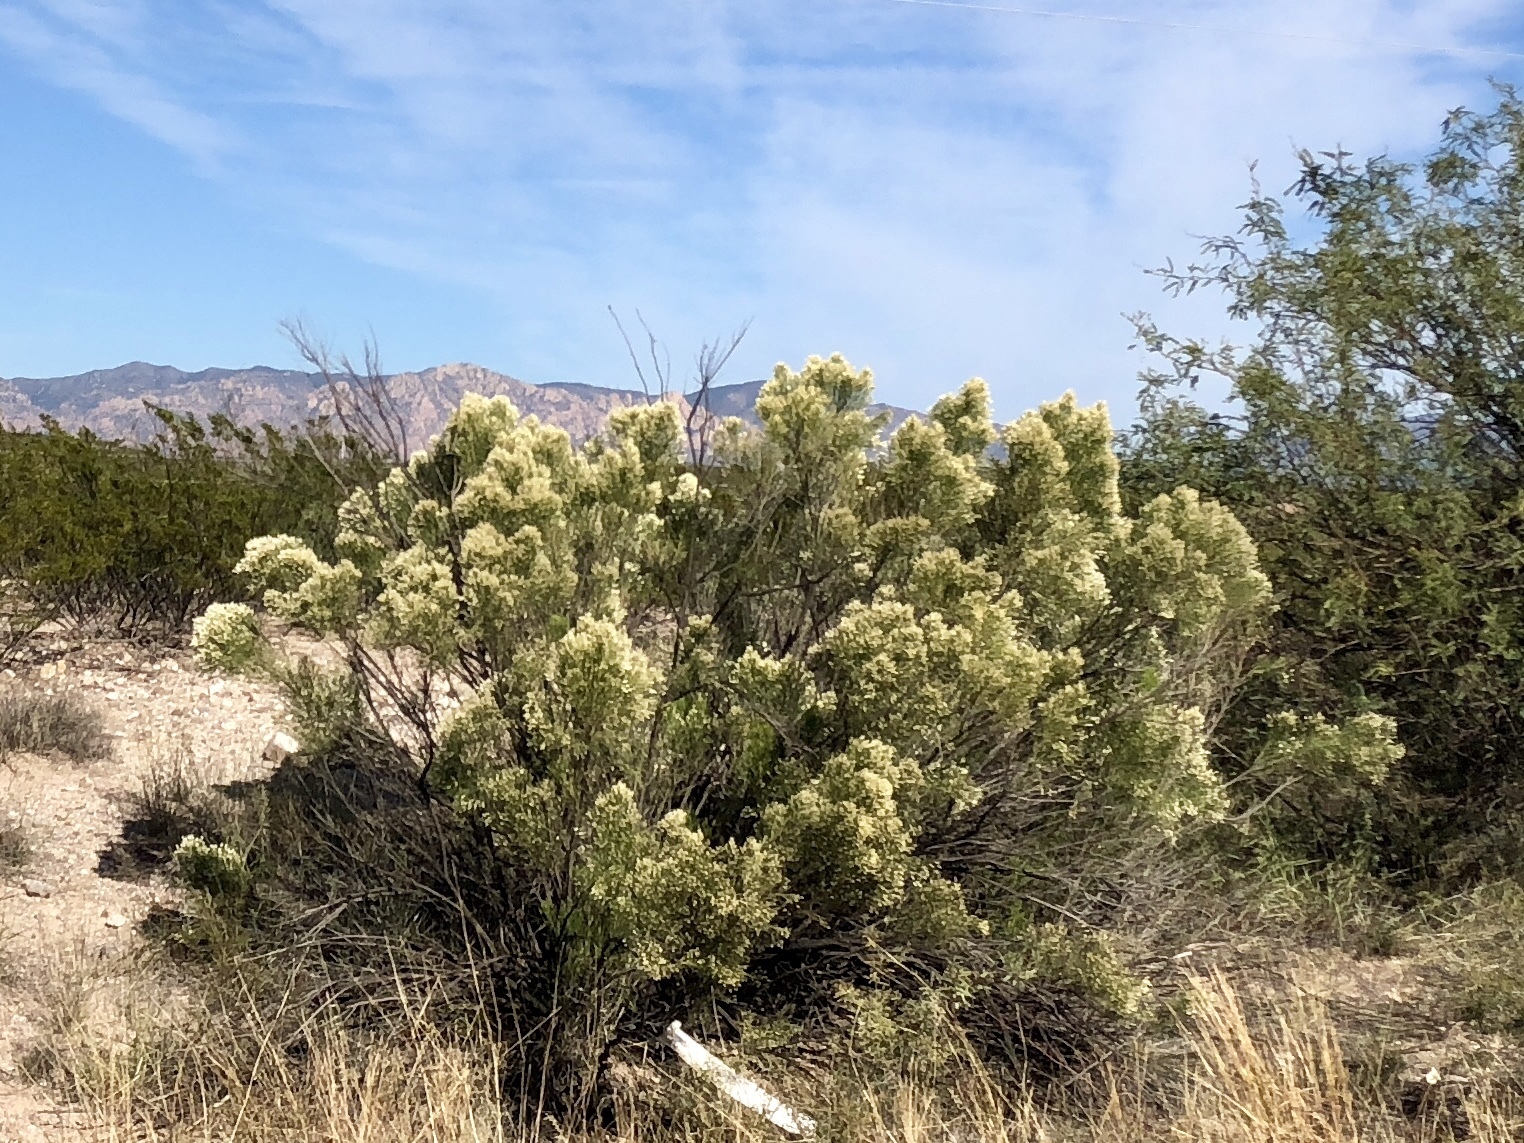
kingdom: Plantae
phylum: Tracheophyta
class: Magnoliopsida
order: Asterales
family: Asteraceae
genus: Baccharis
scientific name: Baccharis sarothroides
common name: Desert-broom
